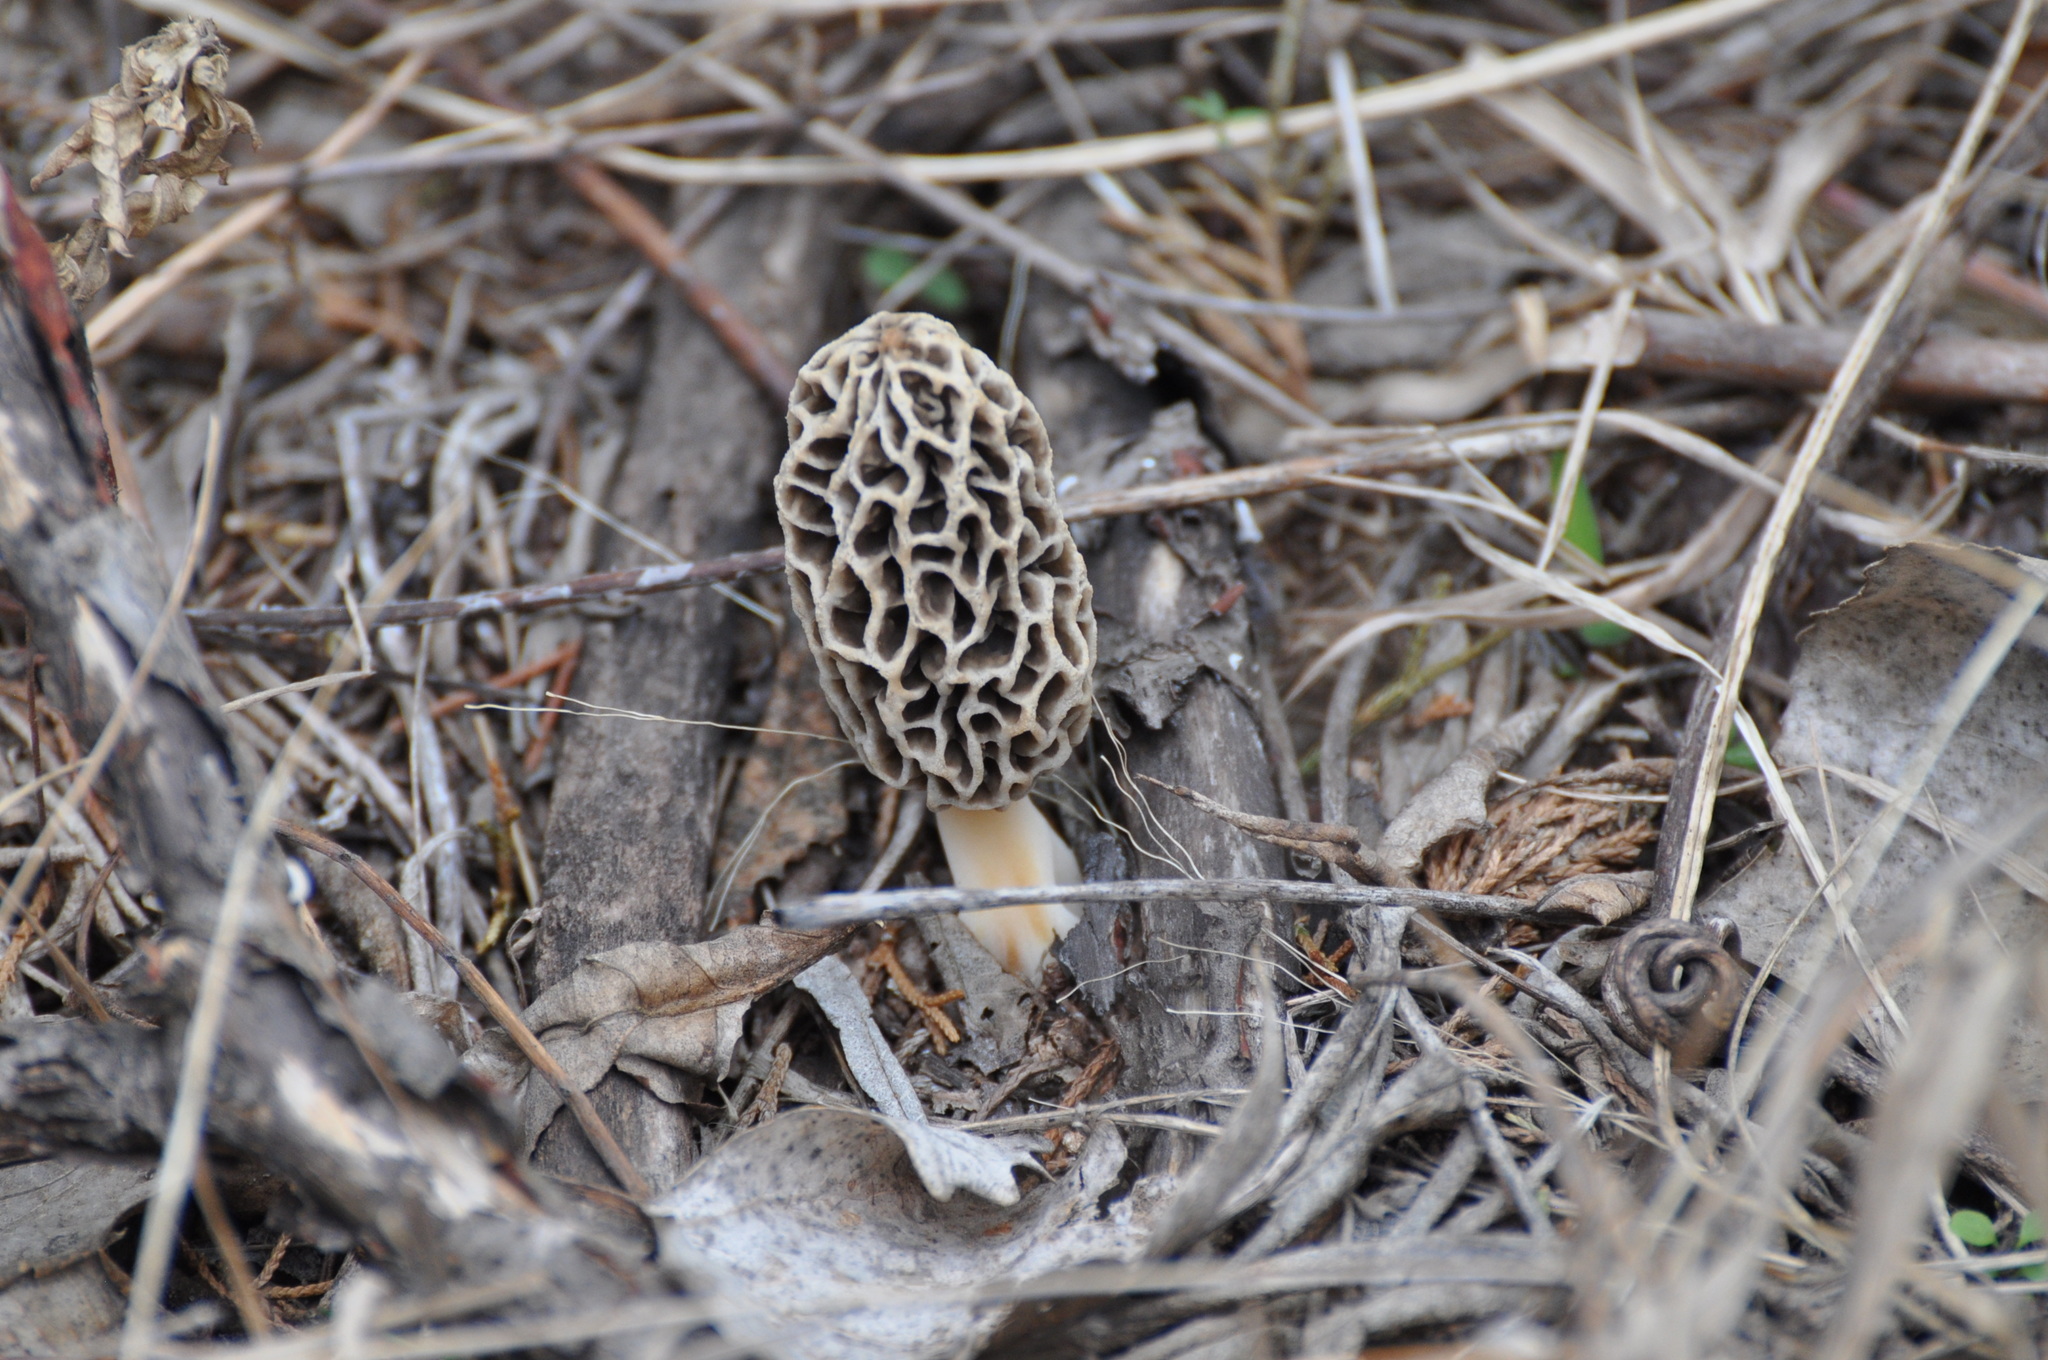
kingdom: Fungi
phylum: Ascomycota
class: Pezizomycetes
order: Pezizales
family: Morchellaceae
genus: Morchella
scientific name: Morchella americana
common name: White morel
